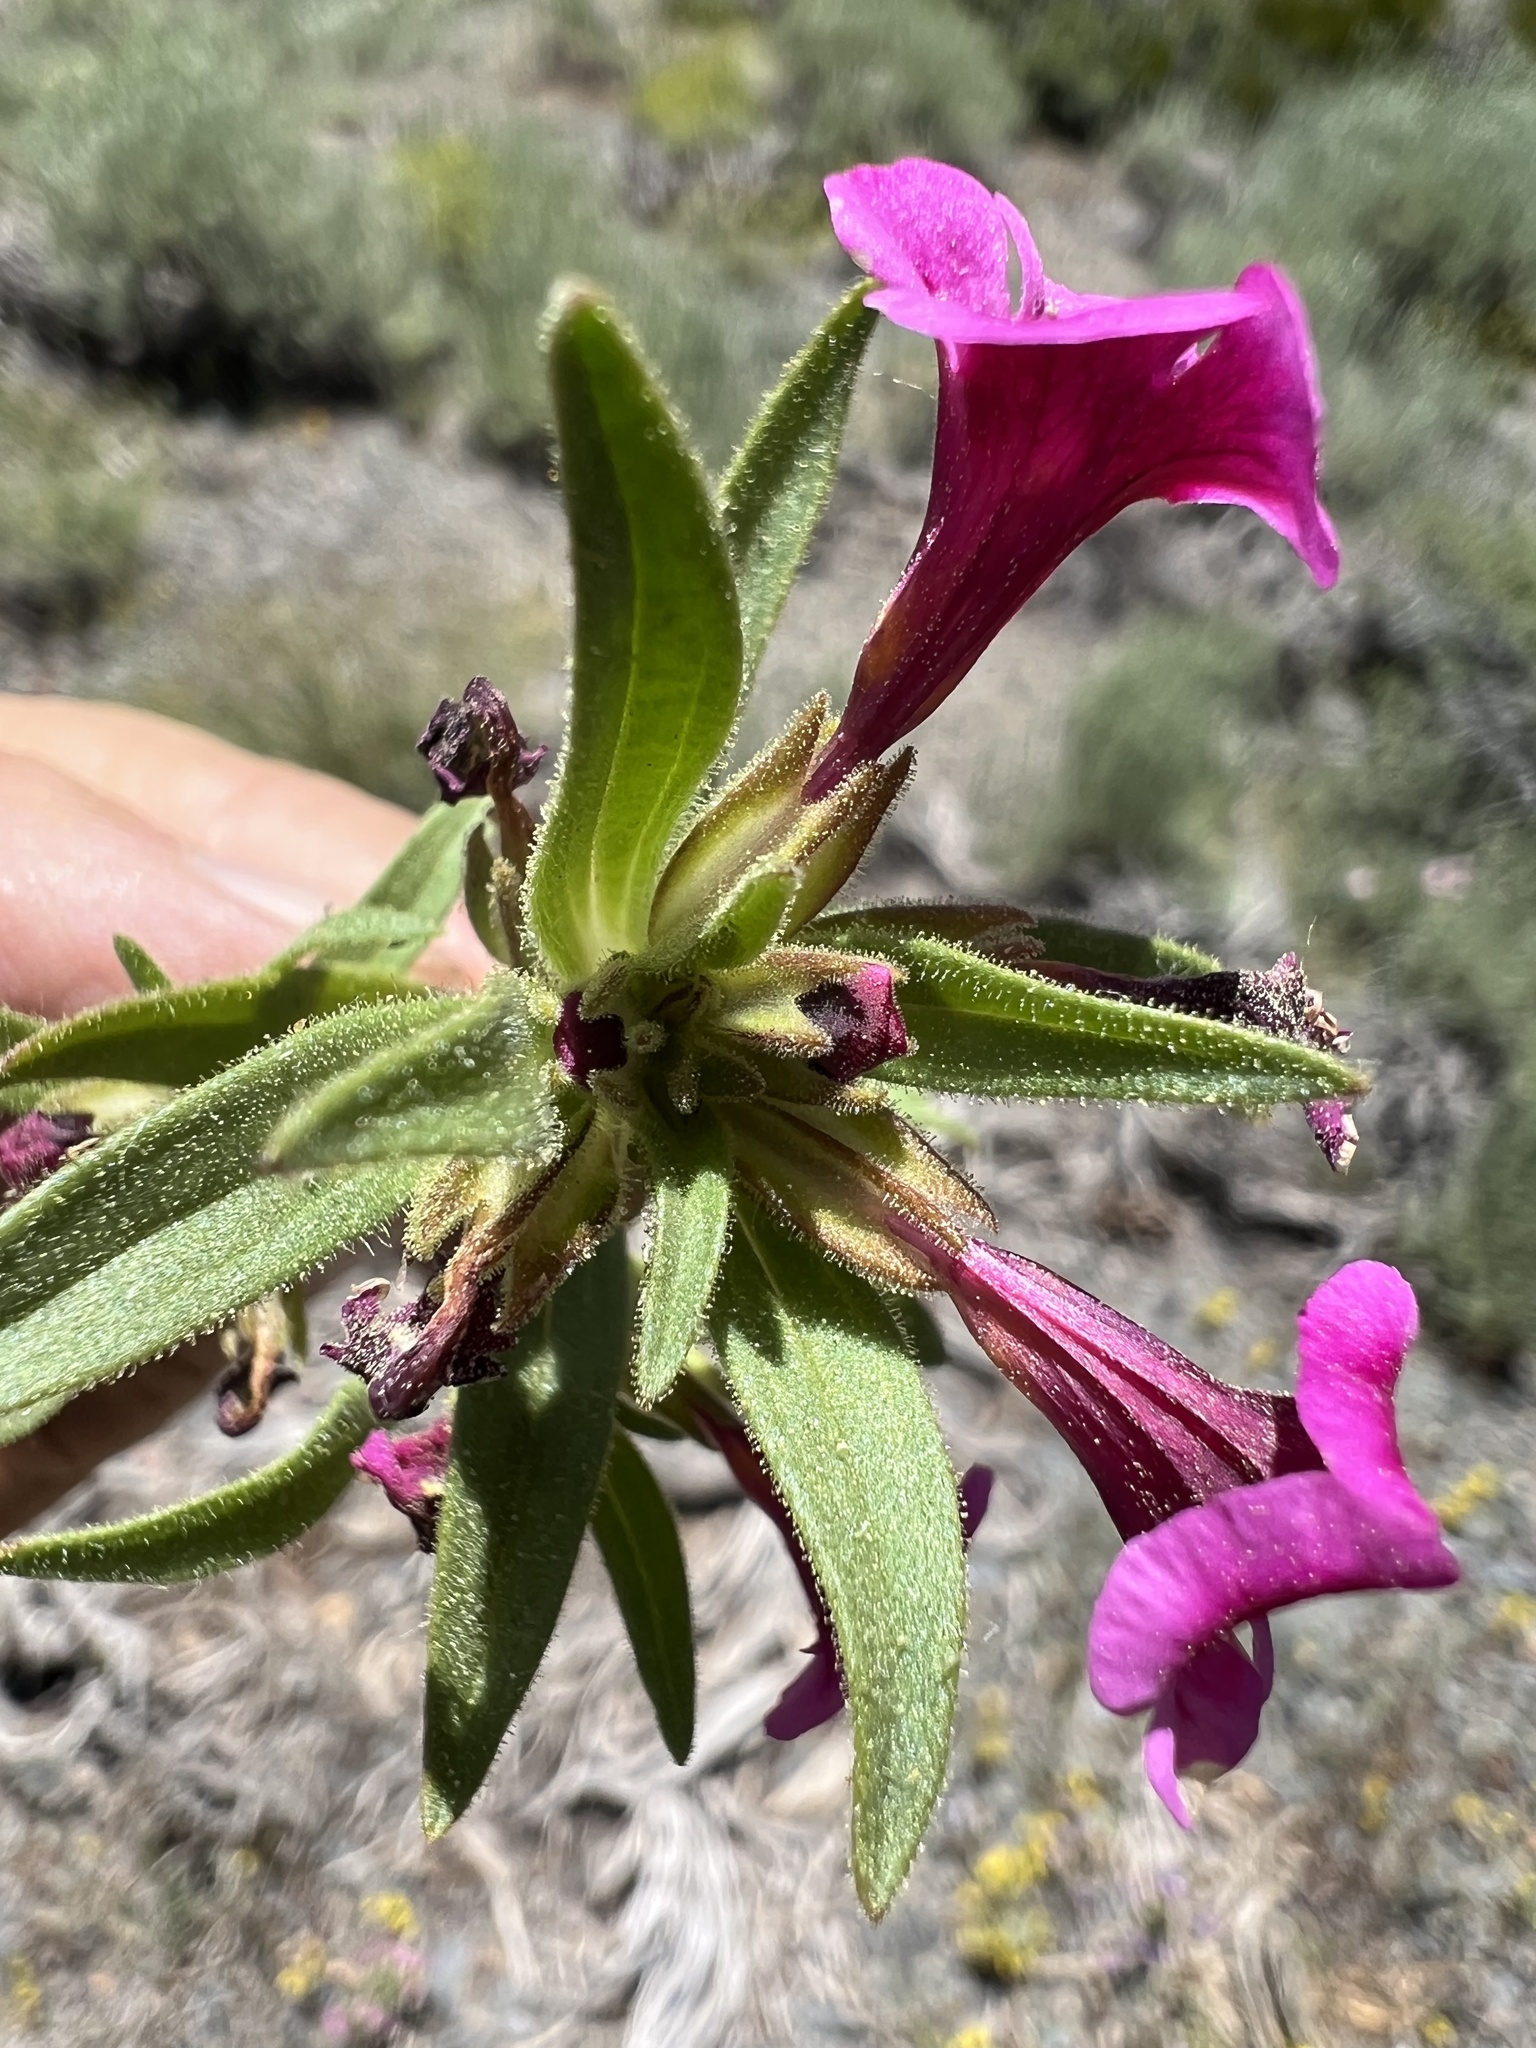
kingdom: Plantae
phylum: Tracheophyta
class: Magnoliopsida
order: Lamiales
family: Phrymaceae
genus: Diplacus
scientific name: Diplacus mephiticus
